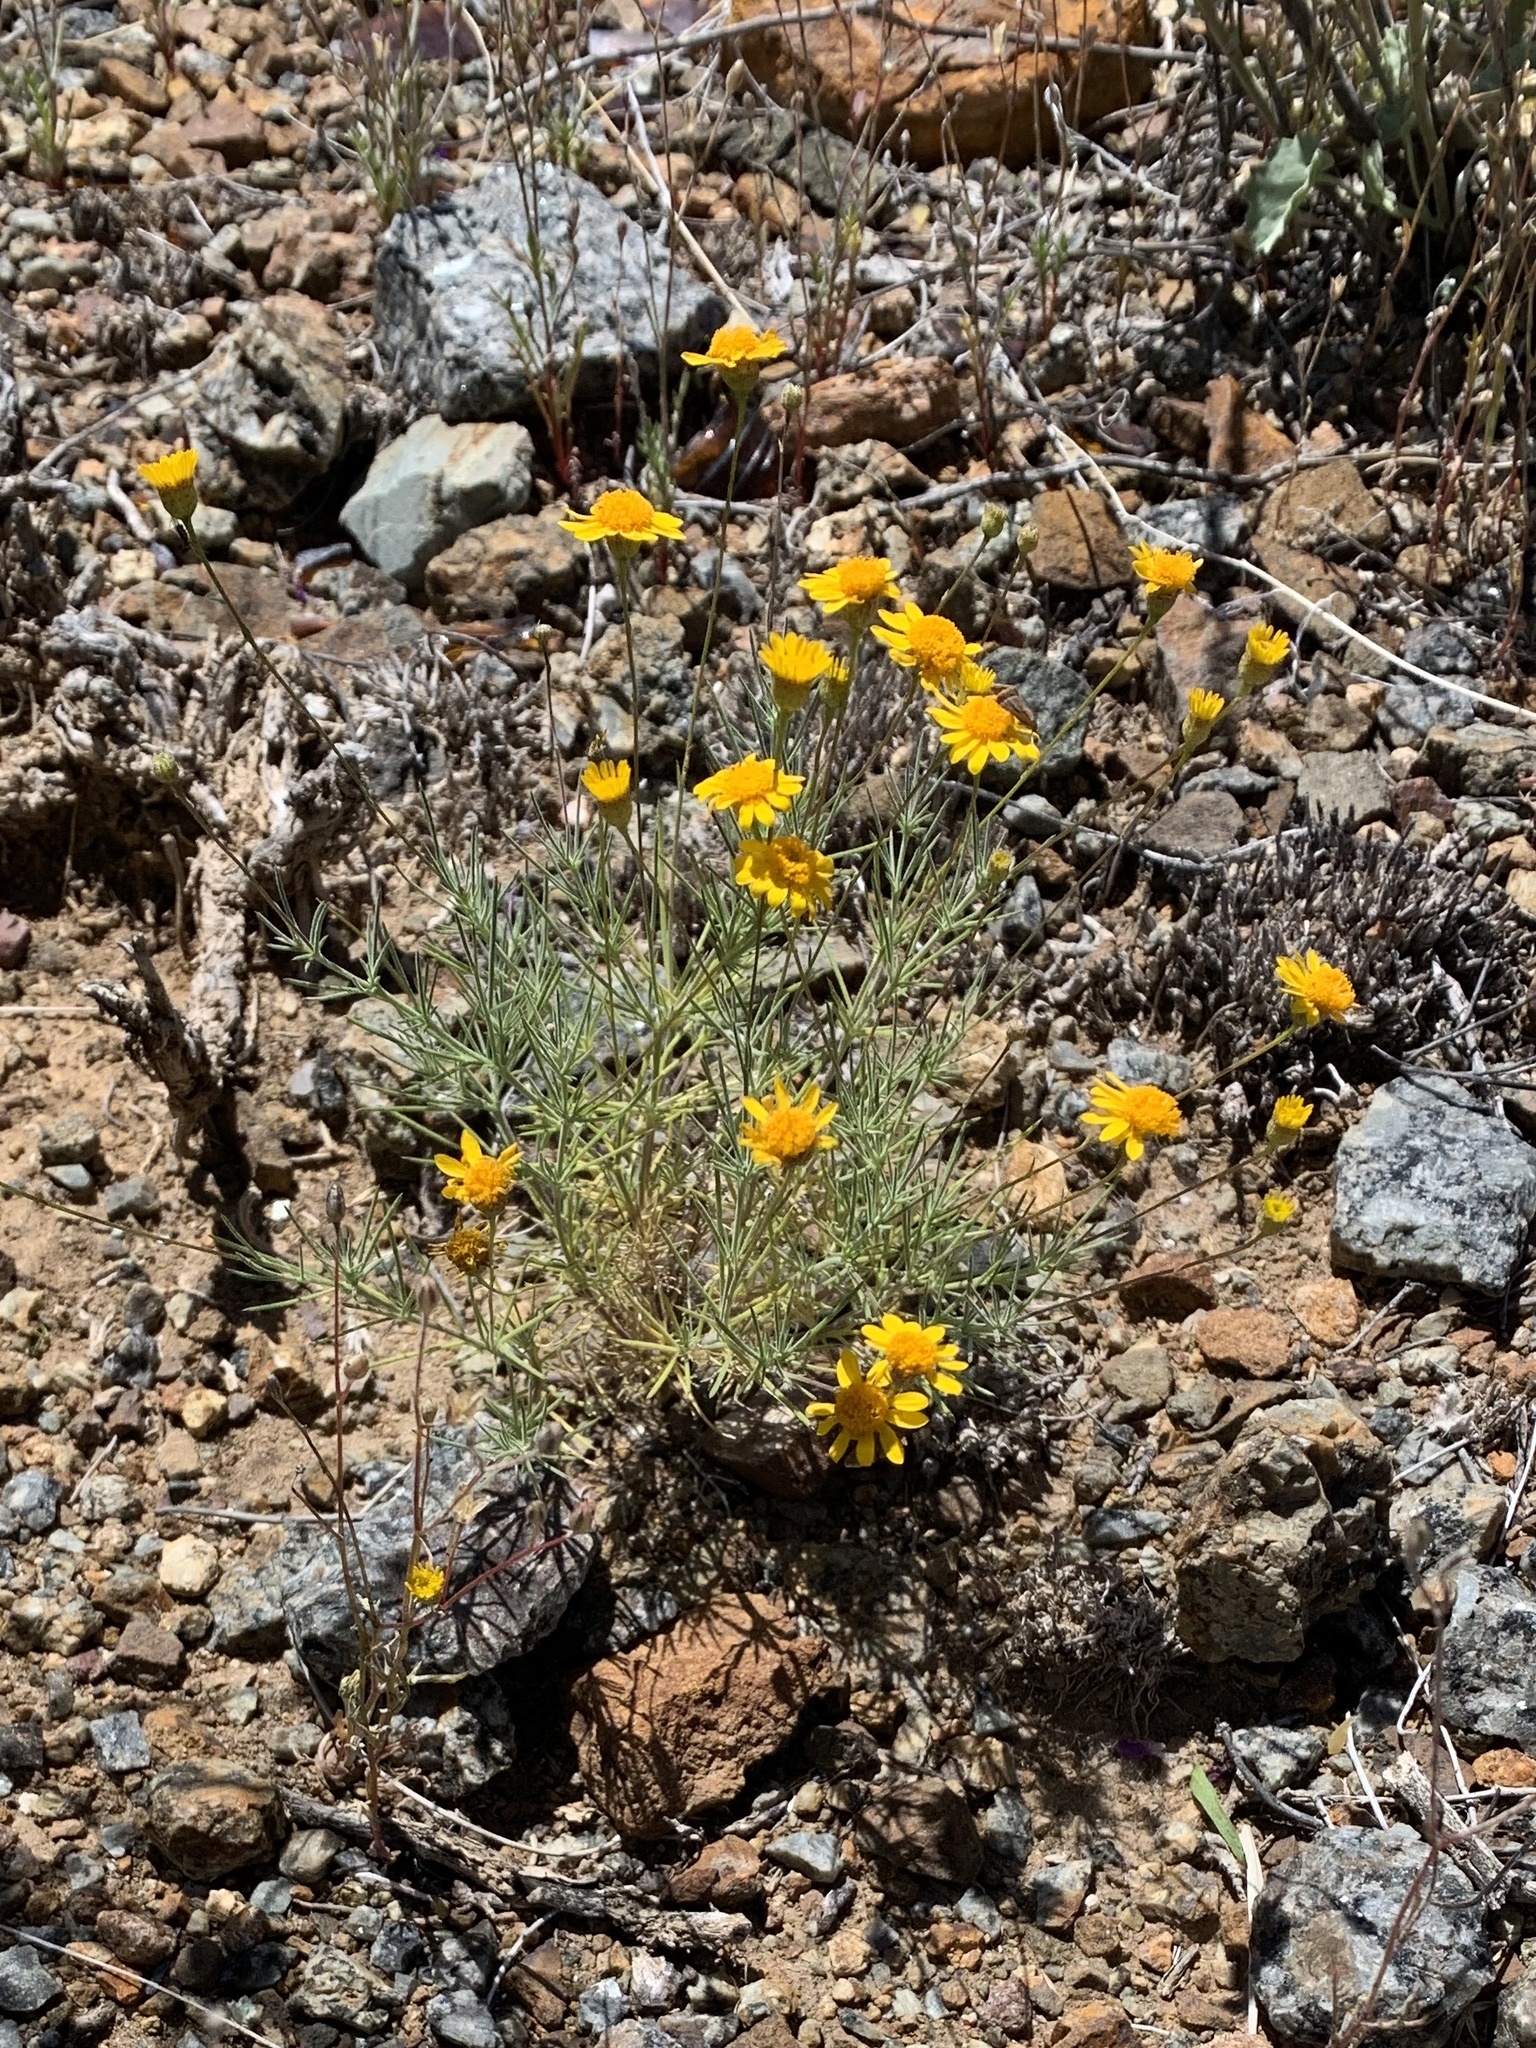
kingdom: Plantae
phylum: Tracheophyta
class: Magnoliopsida
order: Asterales
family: Asteraceae
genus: Thymophylla
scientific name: Thymophylla pentachaeta
